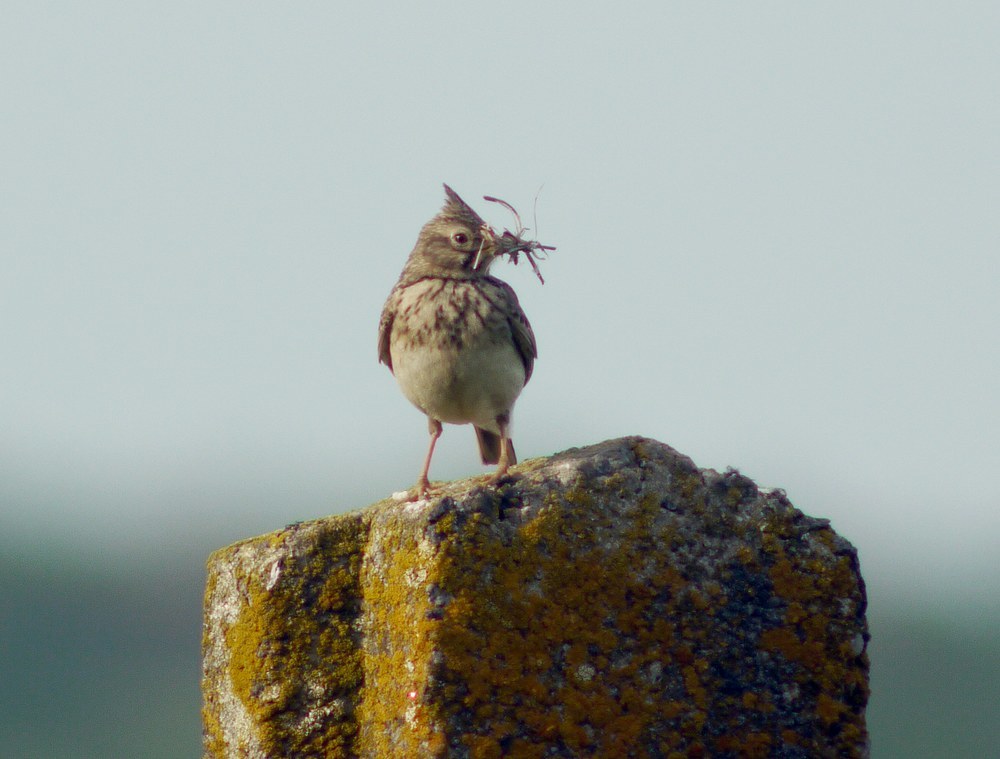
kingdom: Animalia
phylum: Chordata
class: Aves
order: Passeriformes
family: Alaudidae
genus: Galerida
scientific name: Galerida cristata
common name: Crested lark
